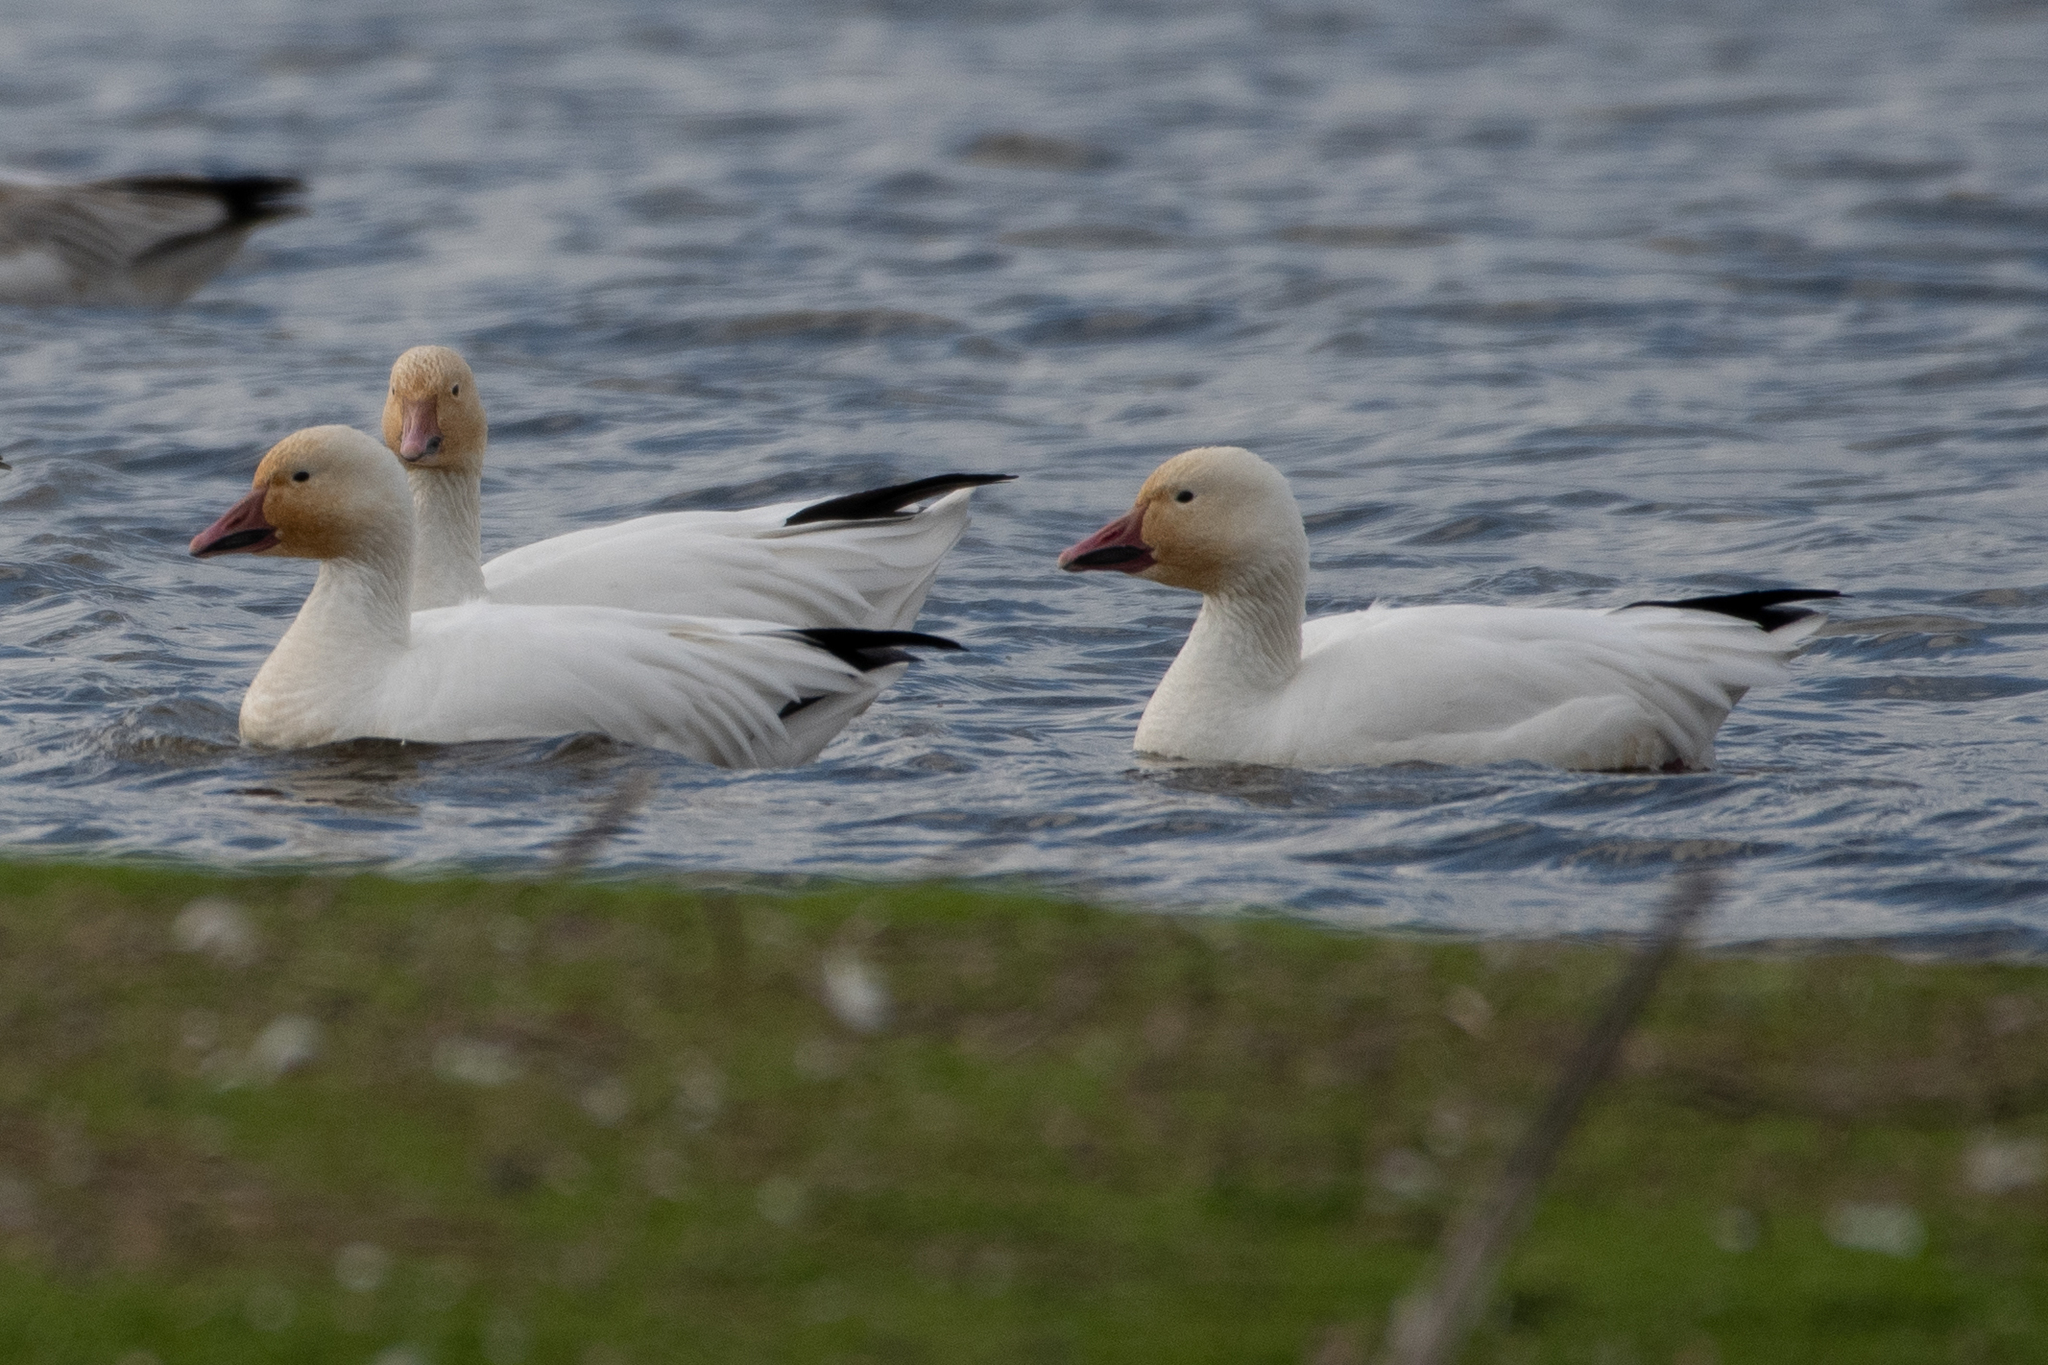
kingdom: Animalia
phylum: Chordata
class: Aves
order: Anseriformes
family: Anatidae
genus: Anser
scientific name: Anser caerulescens
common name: Snow goose
